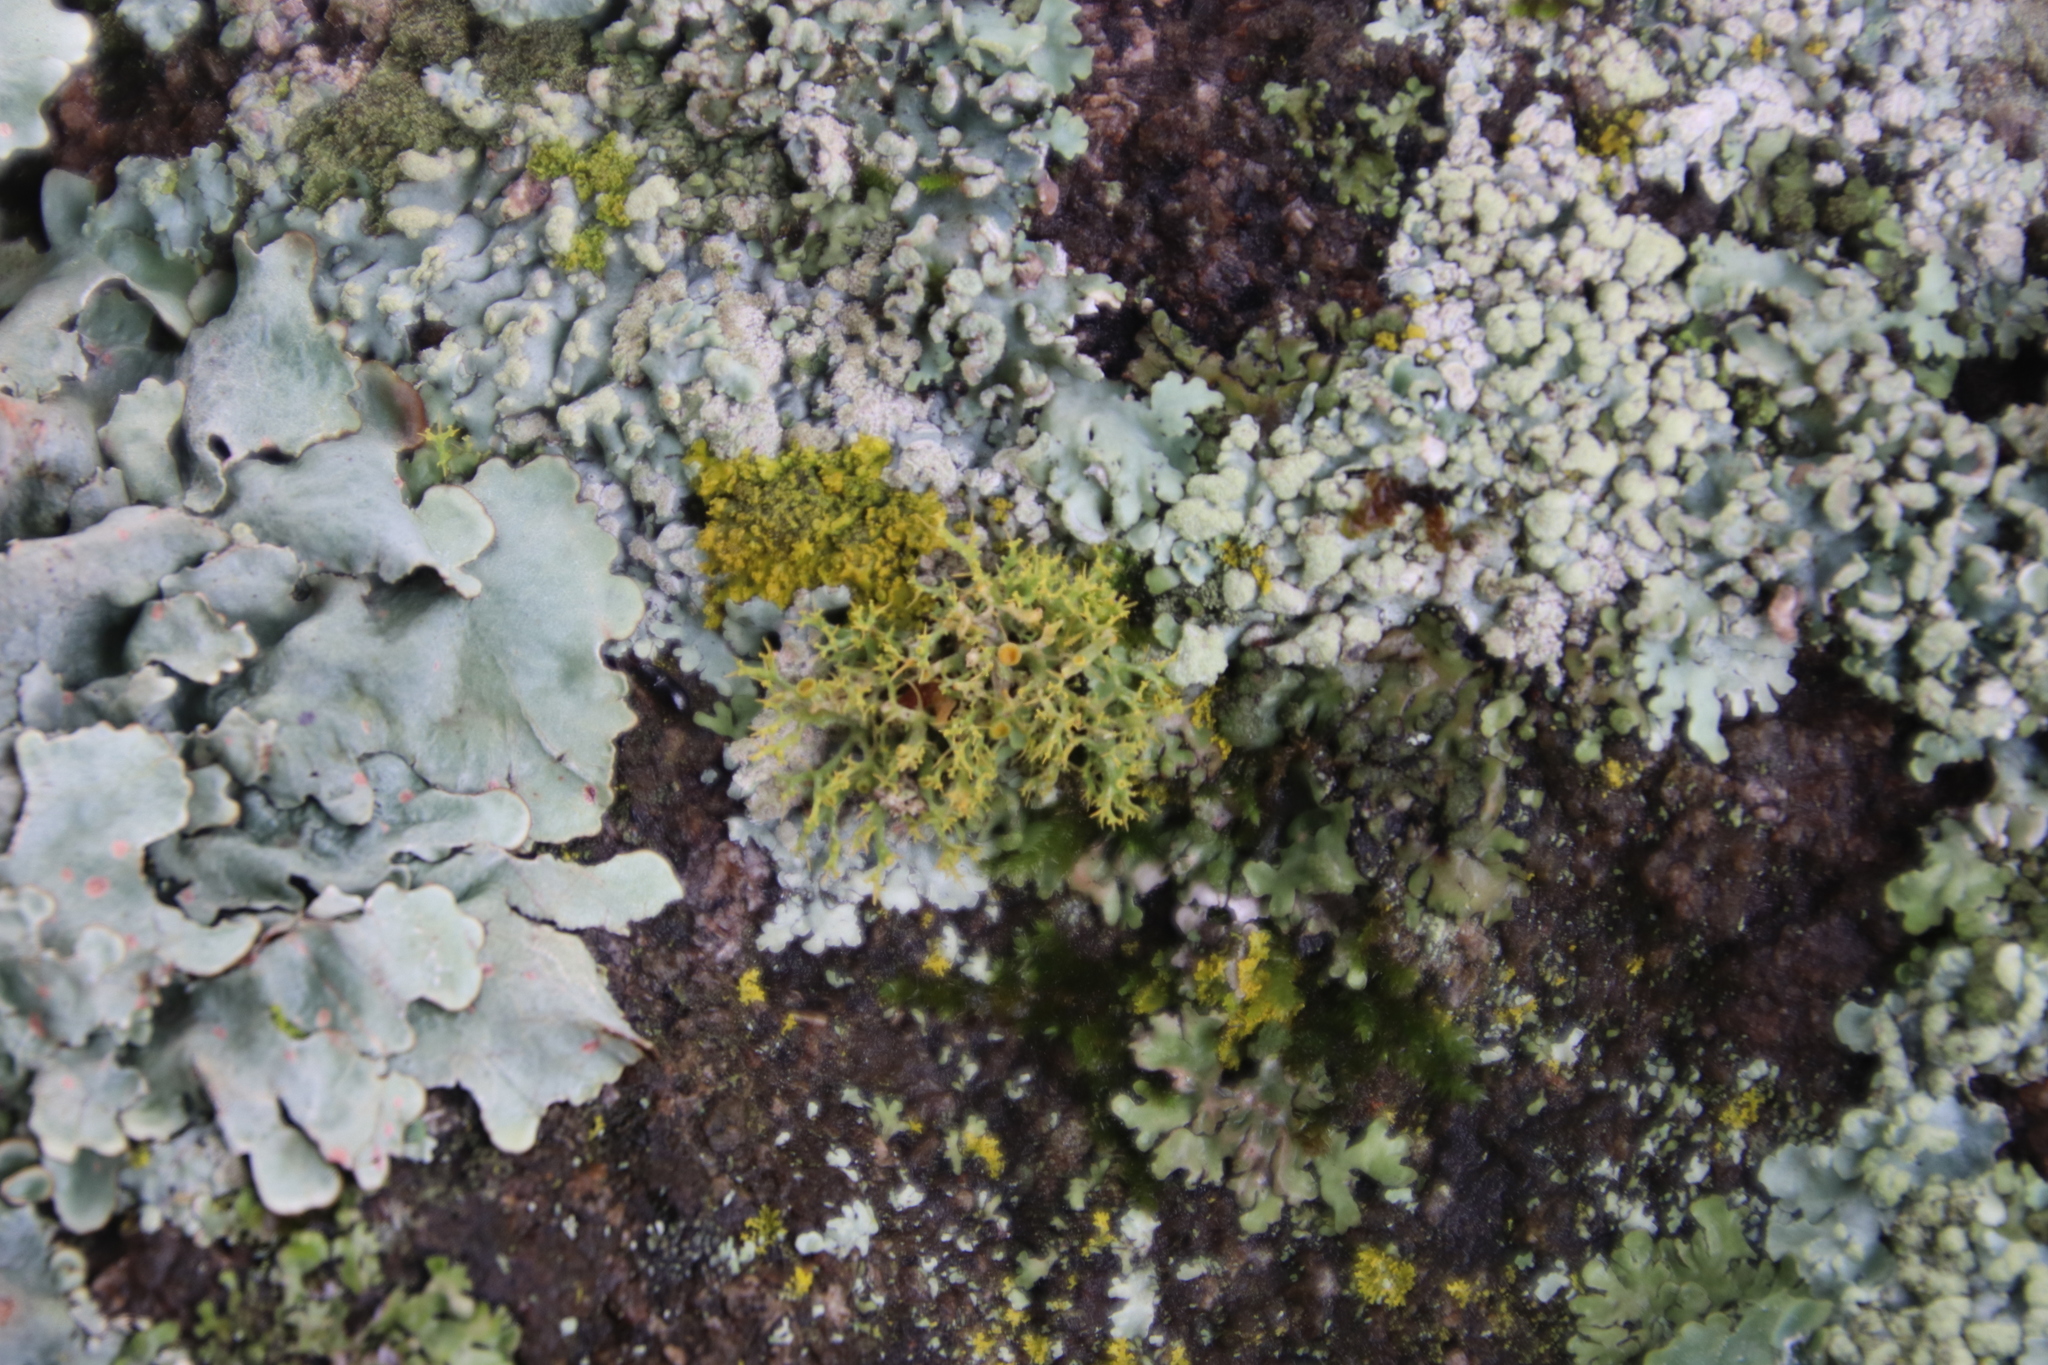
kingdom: Fungi
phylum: Ascomycota
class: Lecanoromycetes
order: Teloschistales
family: Teloschistaceae
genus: Teloschistes
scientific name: Teloschistes pulvinaris
